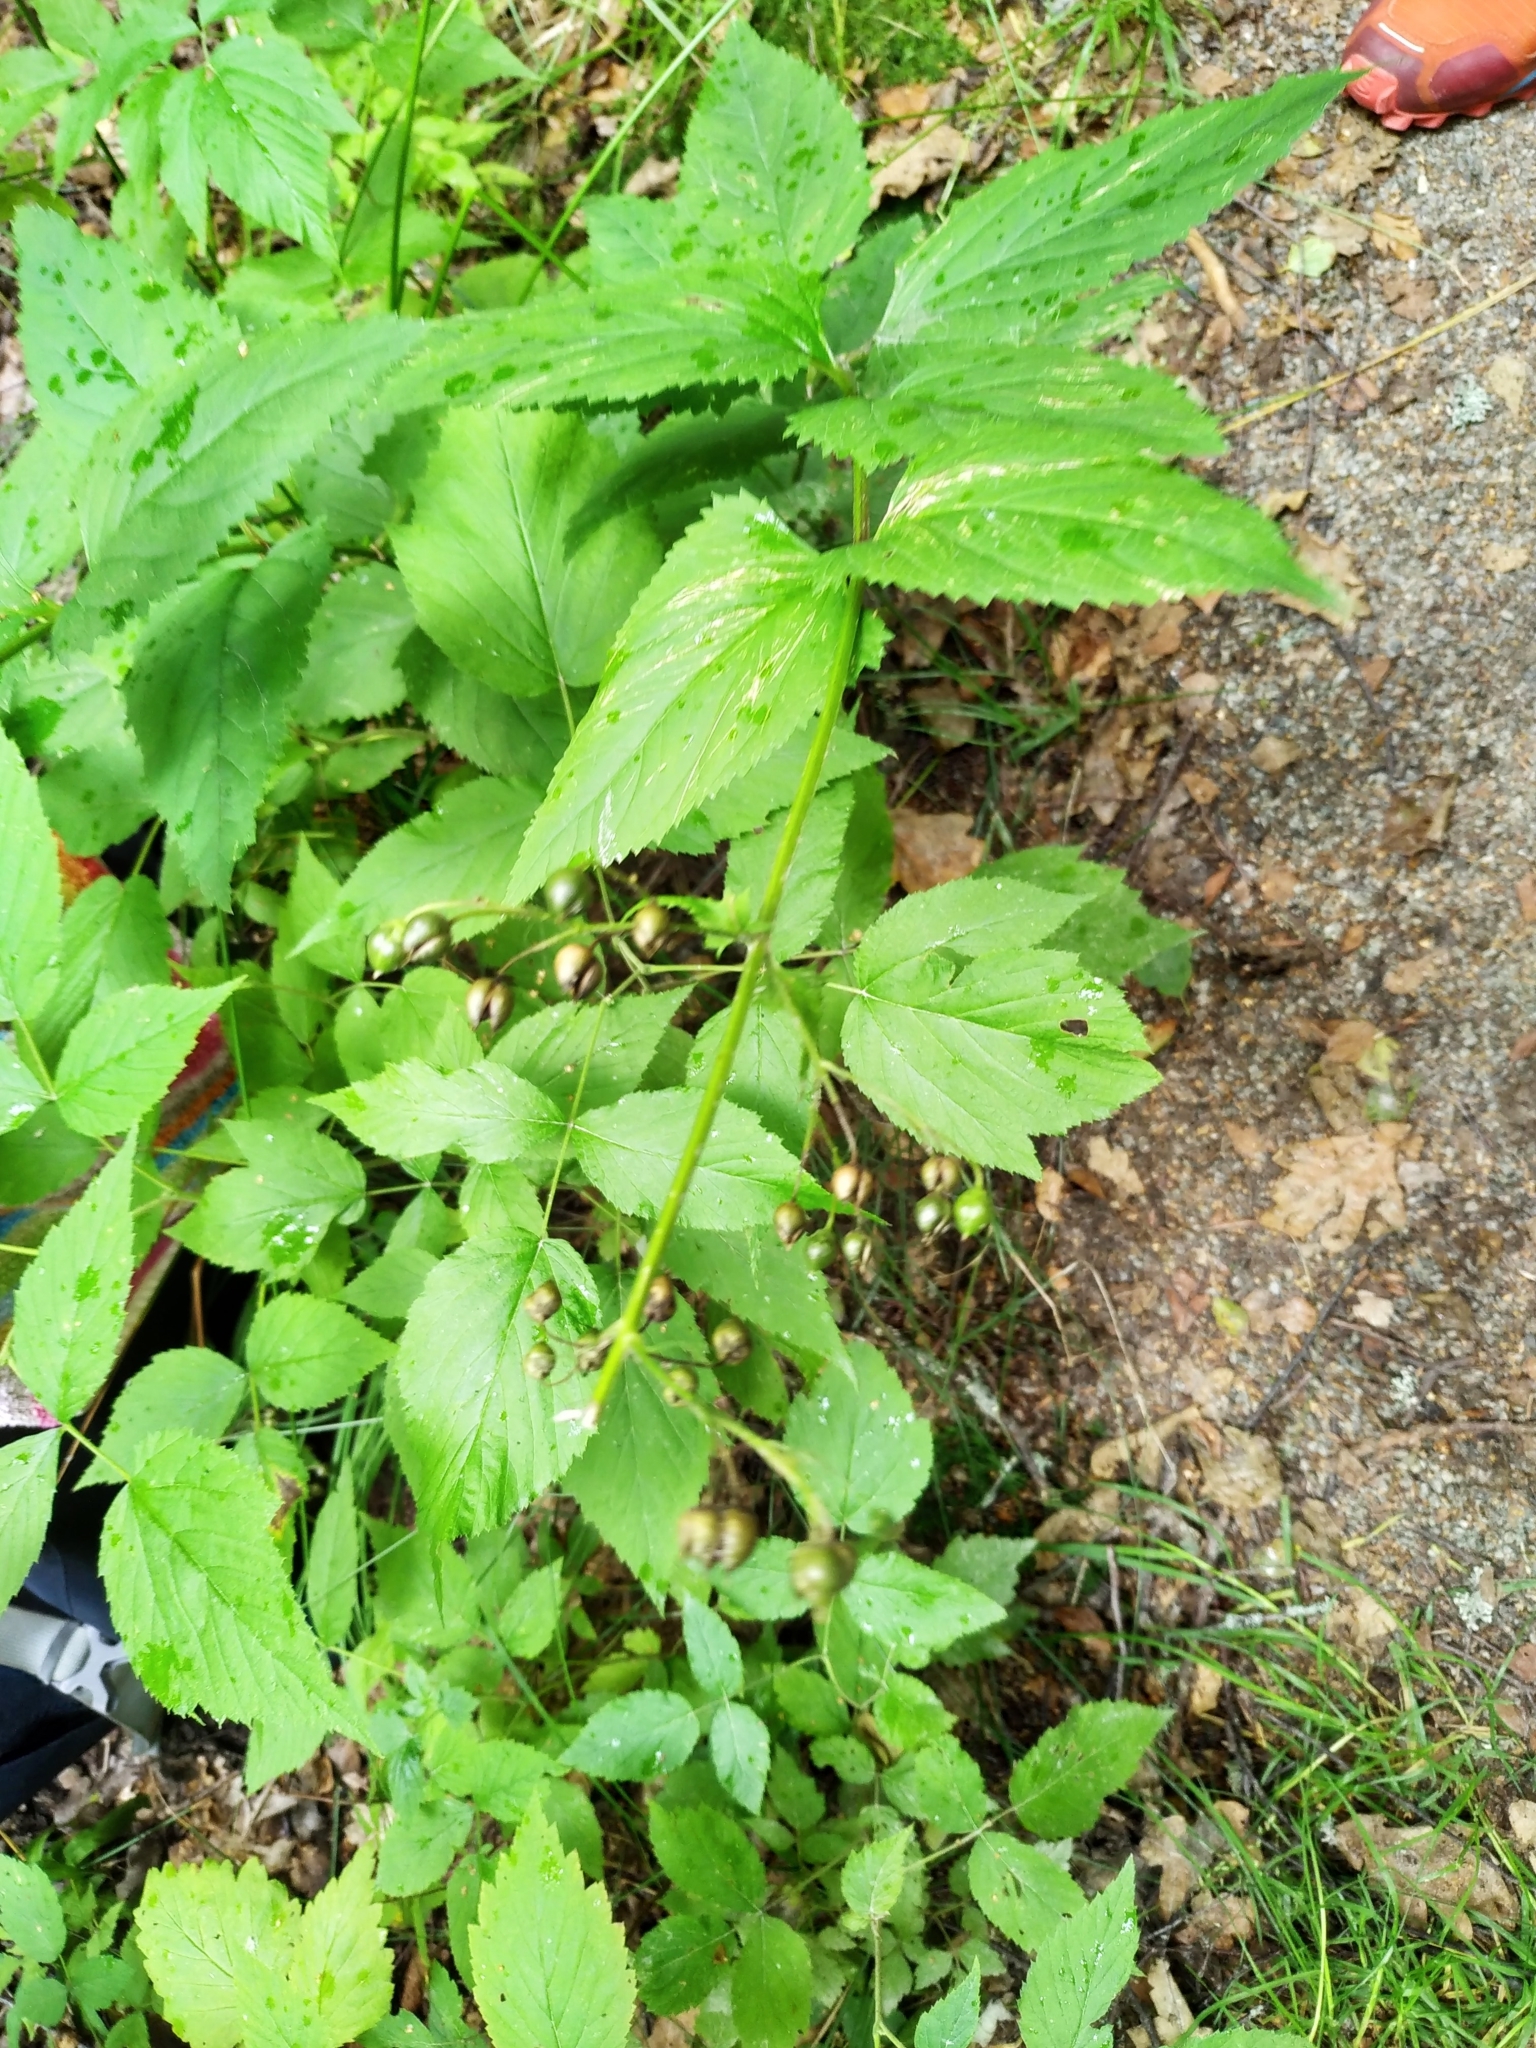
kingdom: Plantae
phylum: Tracheophyta
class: Magnoliopsida
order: Lamiales
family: Scrophulariaceae
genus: Scrophularia
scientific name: Scrophularia nodosa
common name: Common figwort
